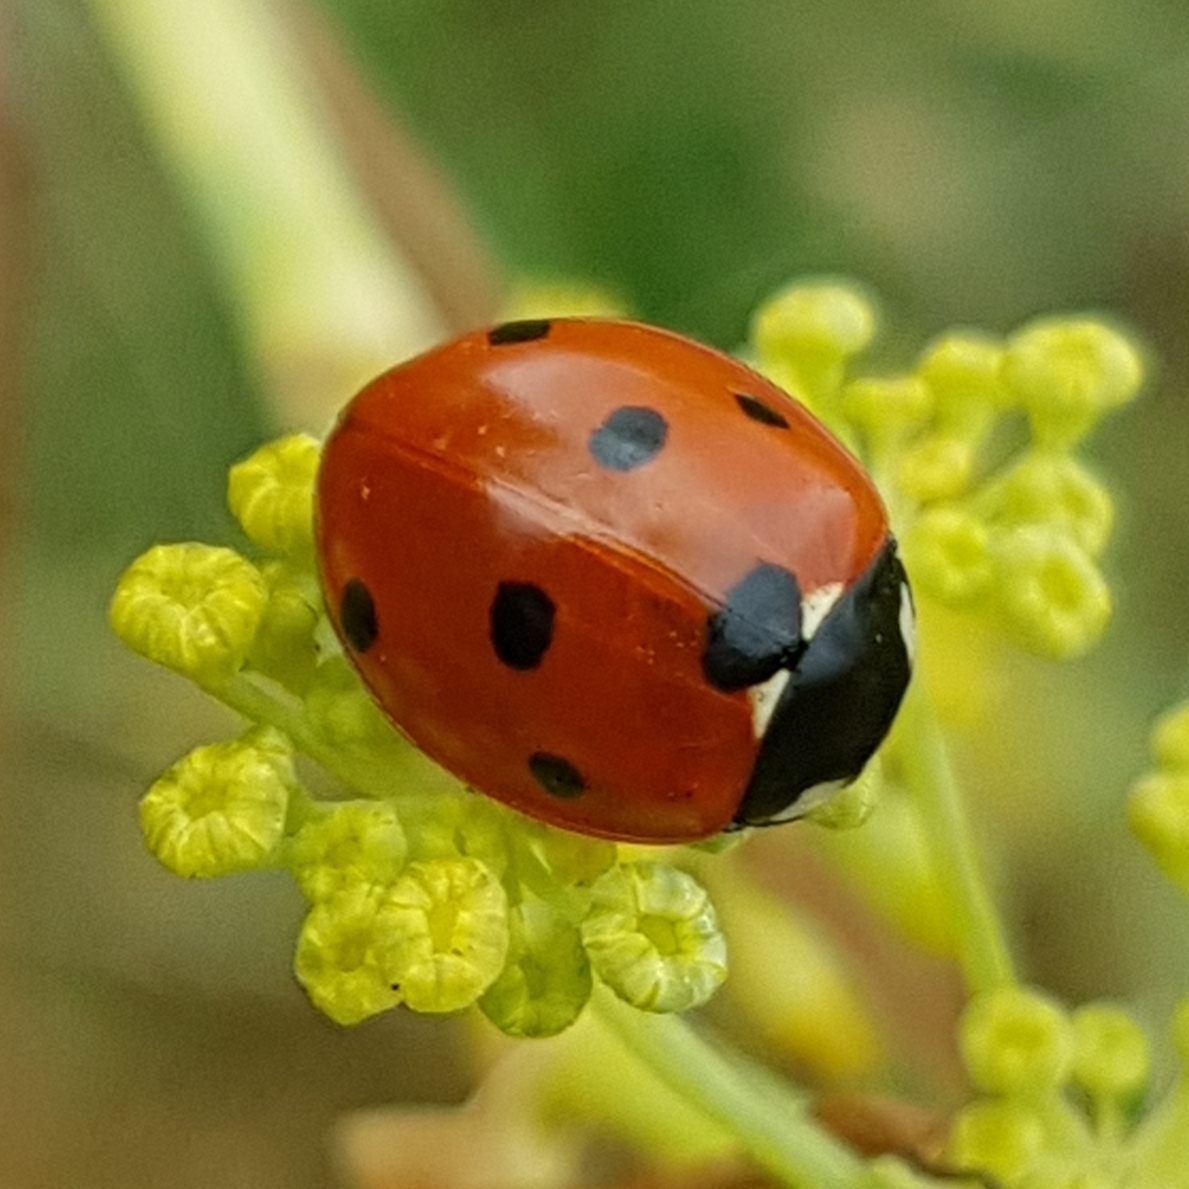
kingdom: Animalia
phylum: Arthropoda
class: Insecta
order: Coleoptera
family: Coccinellidae
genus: Coccinella
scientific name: Coccinella septempunctata
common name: Sevenspotted lady beetle
